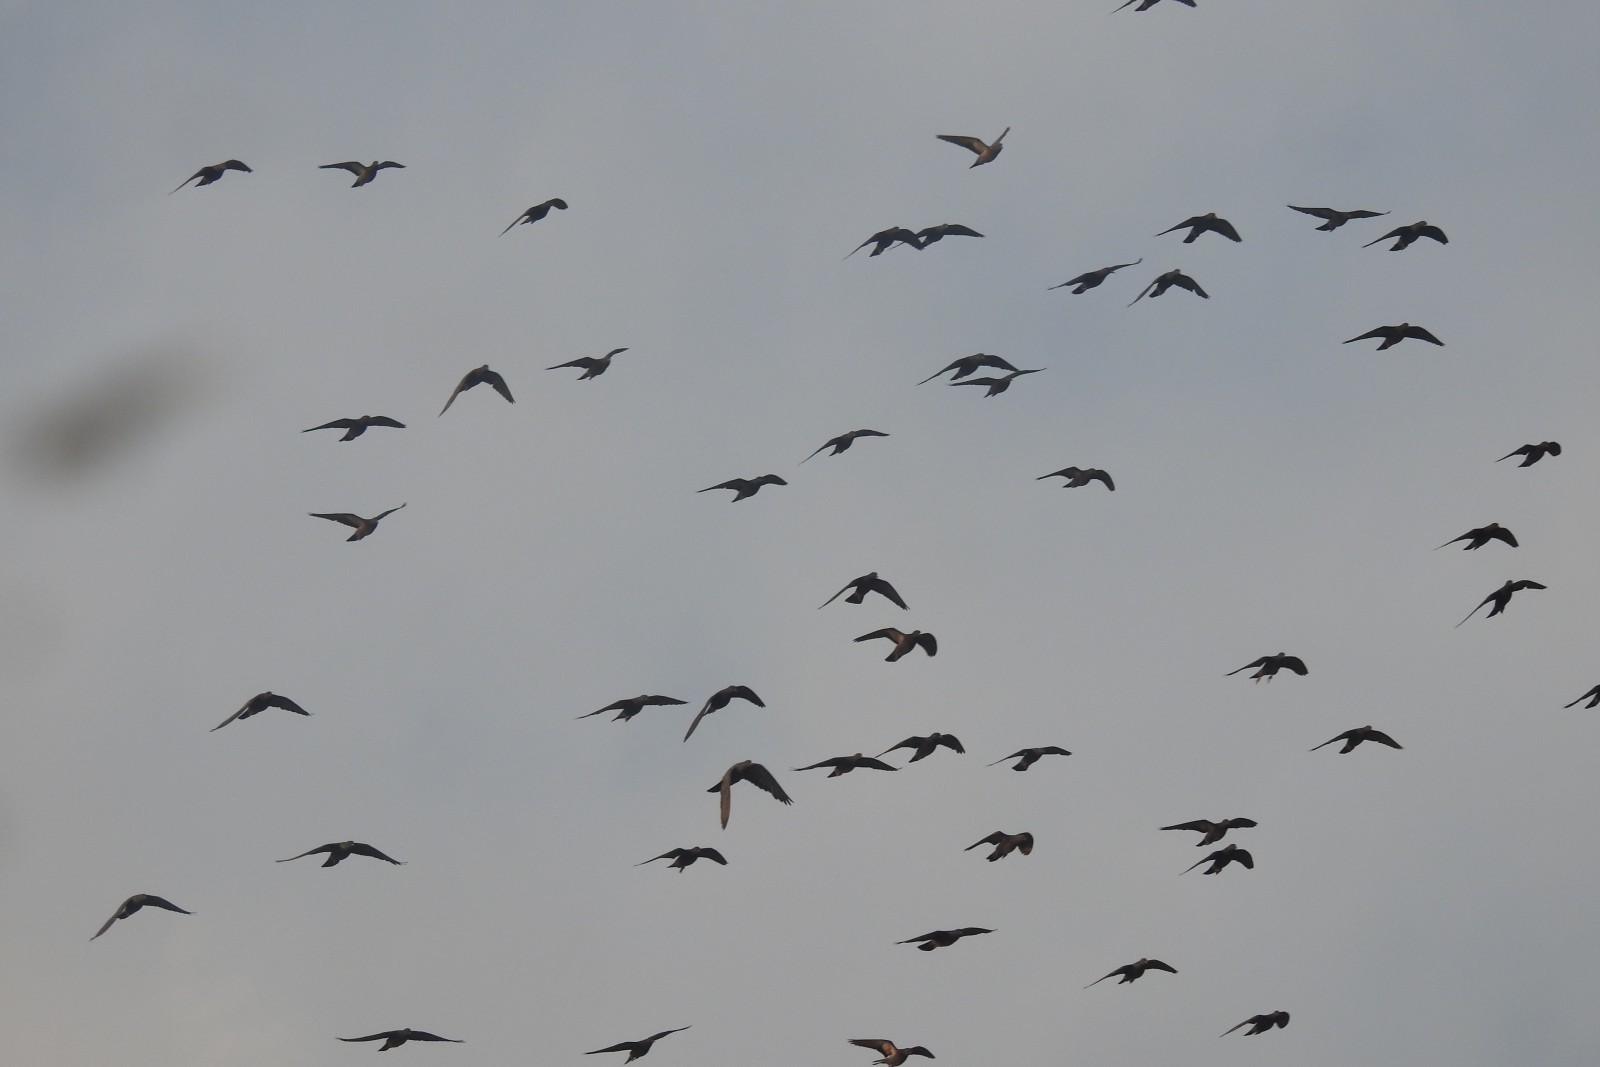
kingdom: Animalia
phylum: Chordata
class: Aves
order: Columbiformes
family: Columbidae
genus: Columba
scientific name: Columba livia
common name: Rock pigeon
